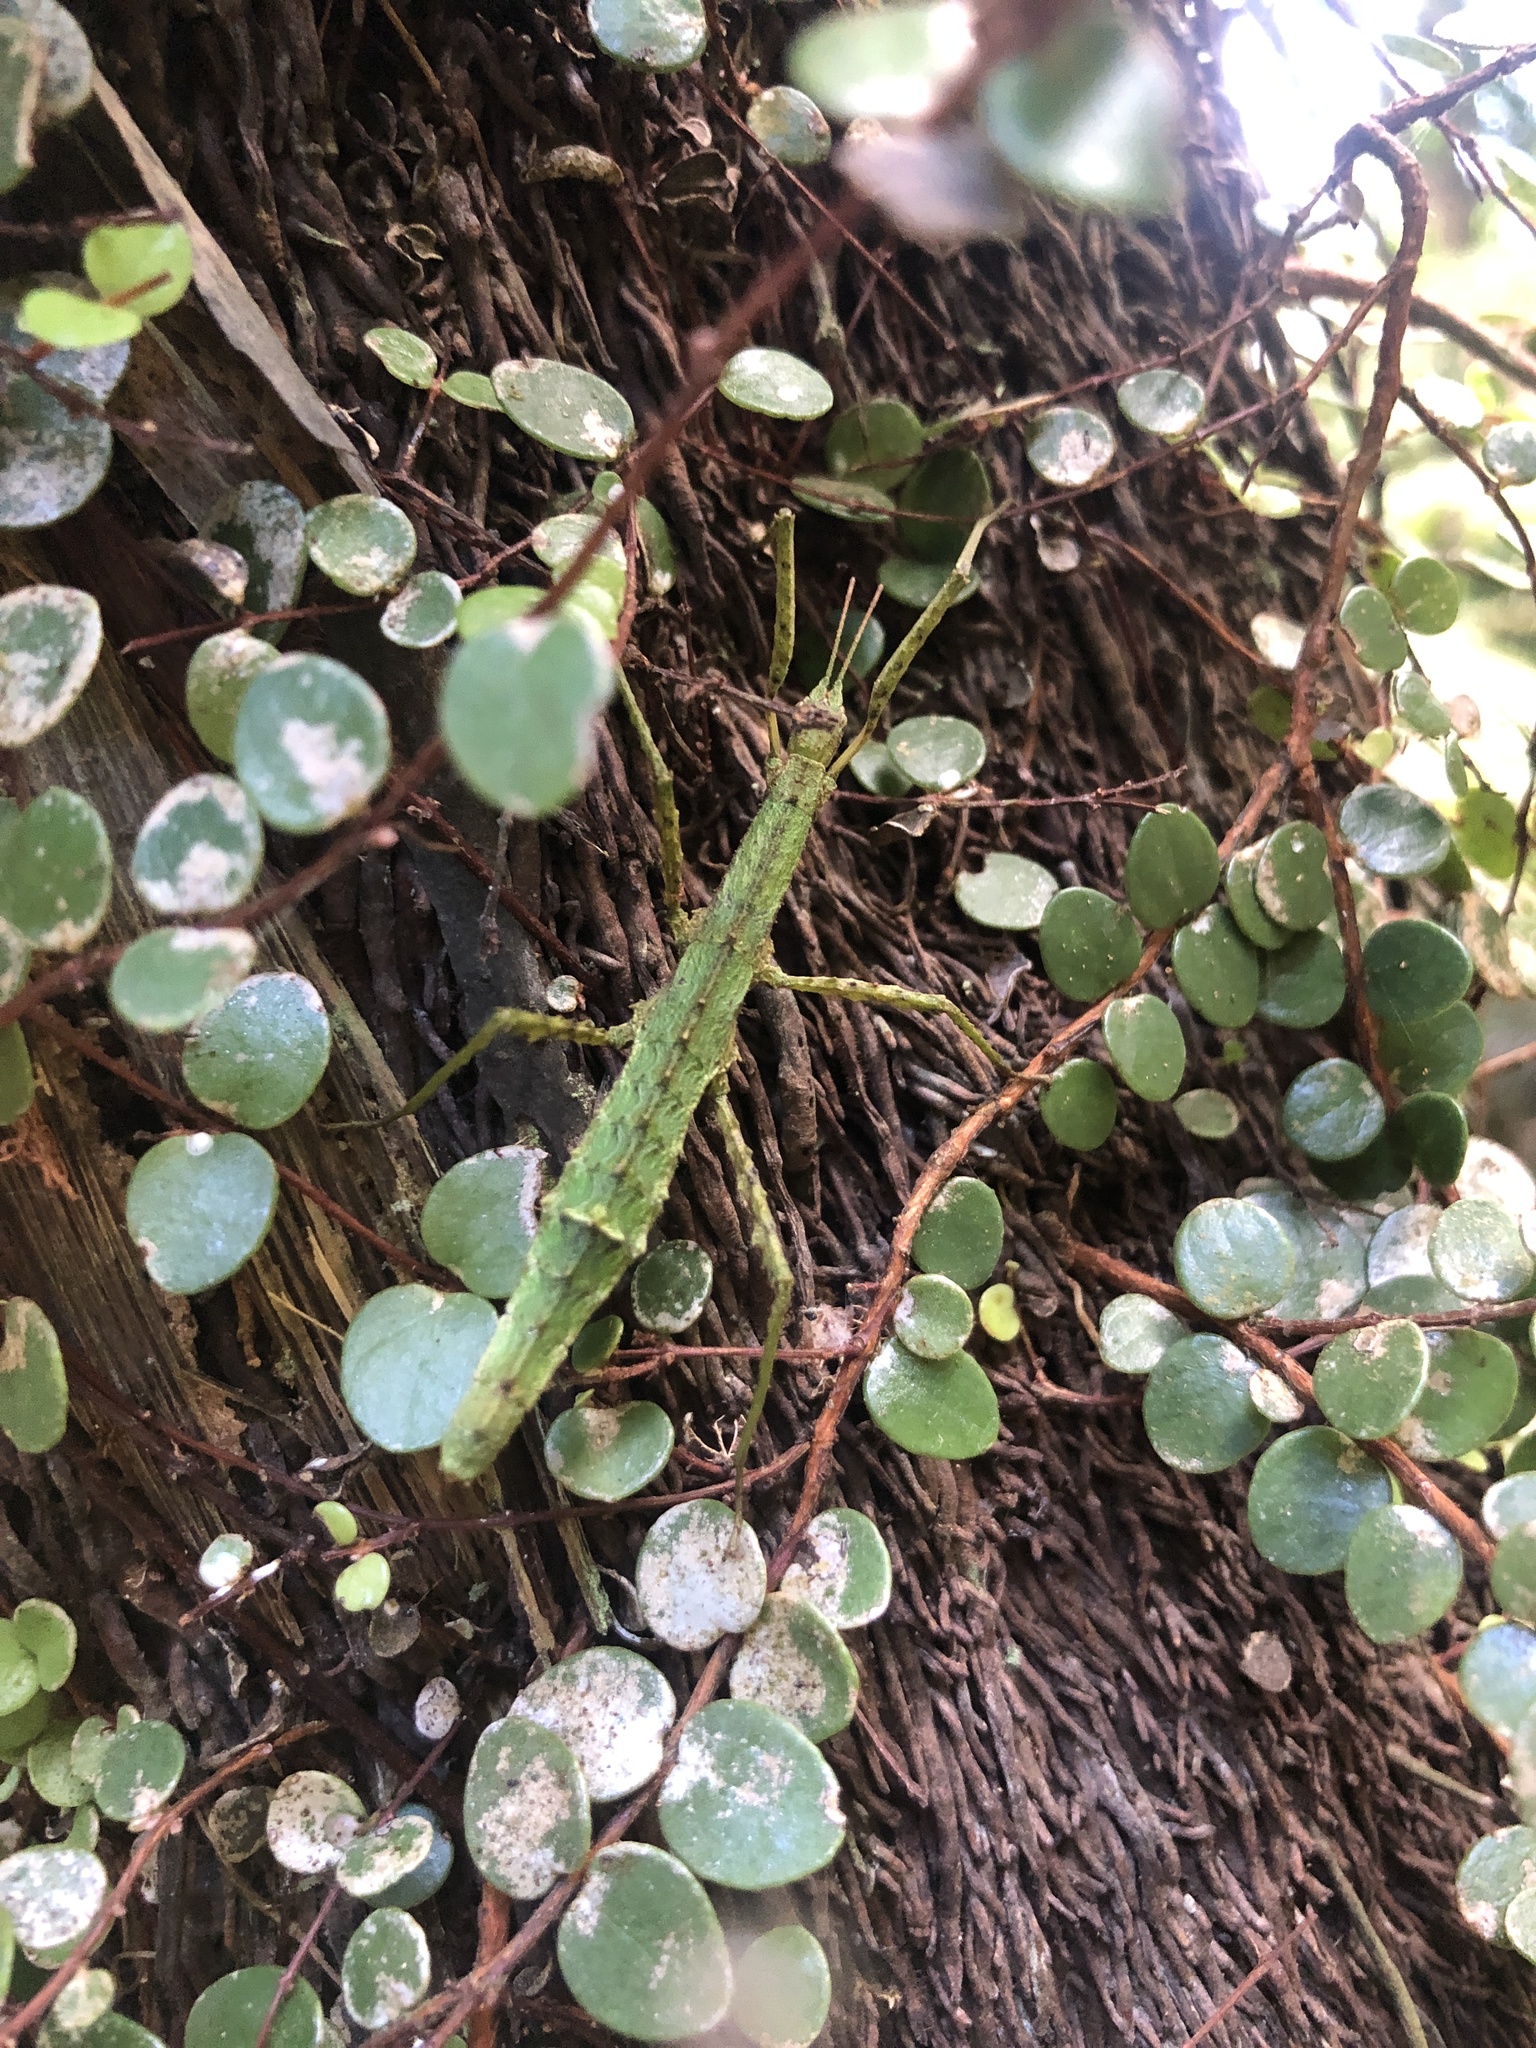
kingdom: Animalia
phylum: Arthropoda
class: Insecta
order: Phasmida
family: Phasmatidae
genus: Spinotectarchus
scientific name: Spinotectarchus acornutus
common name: The spiny ridge-backed stick insect
